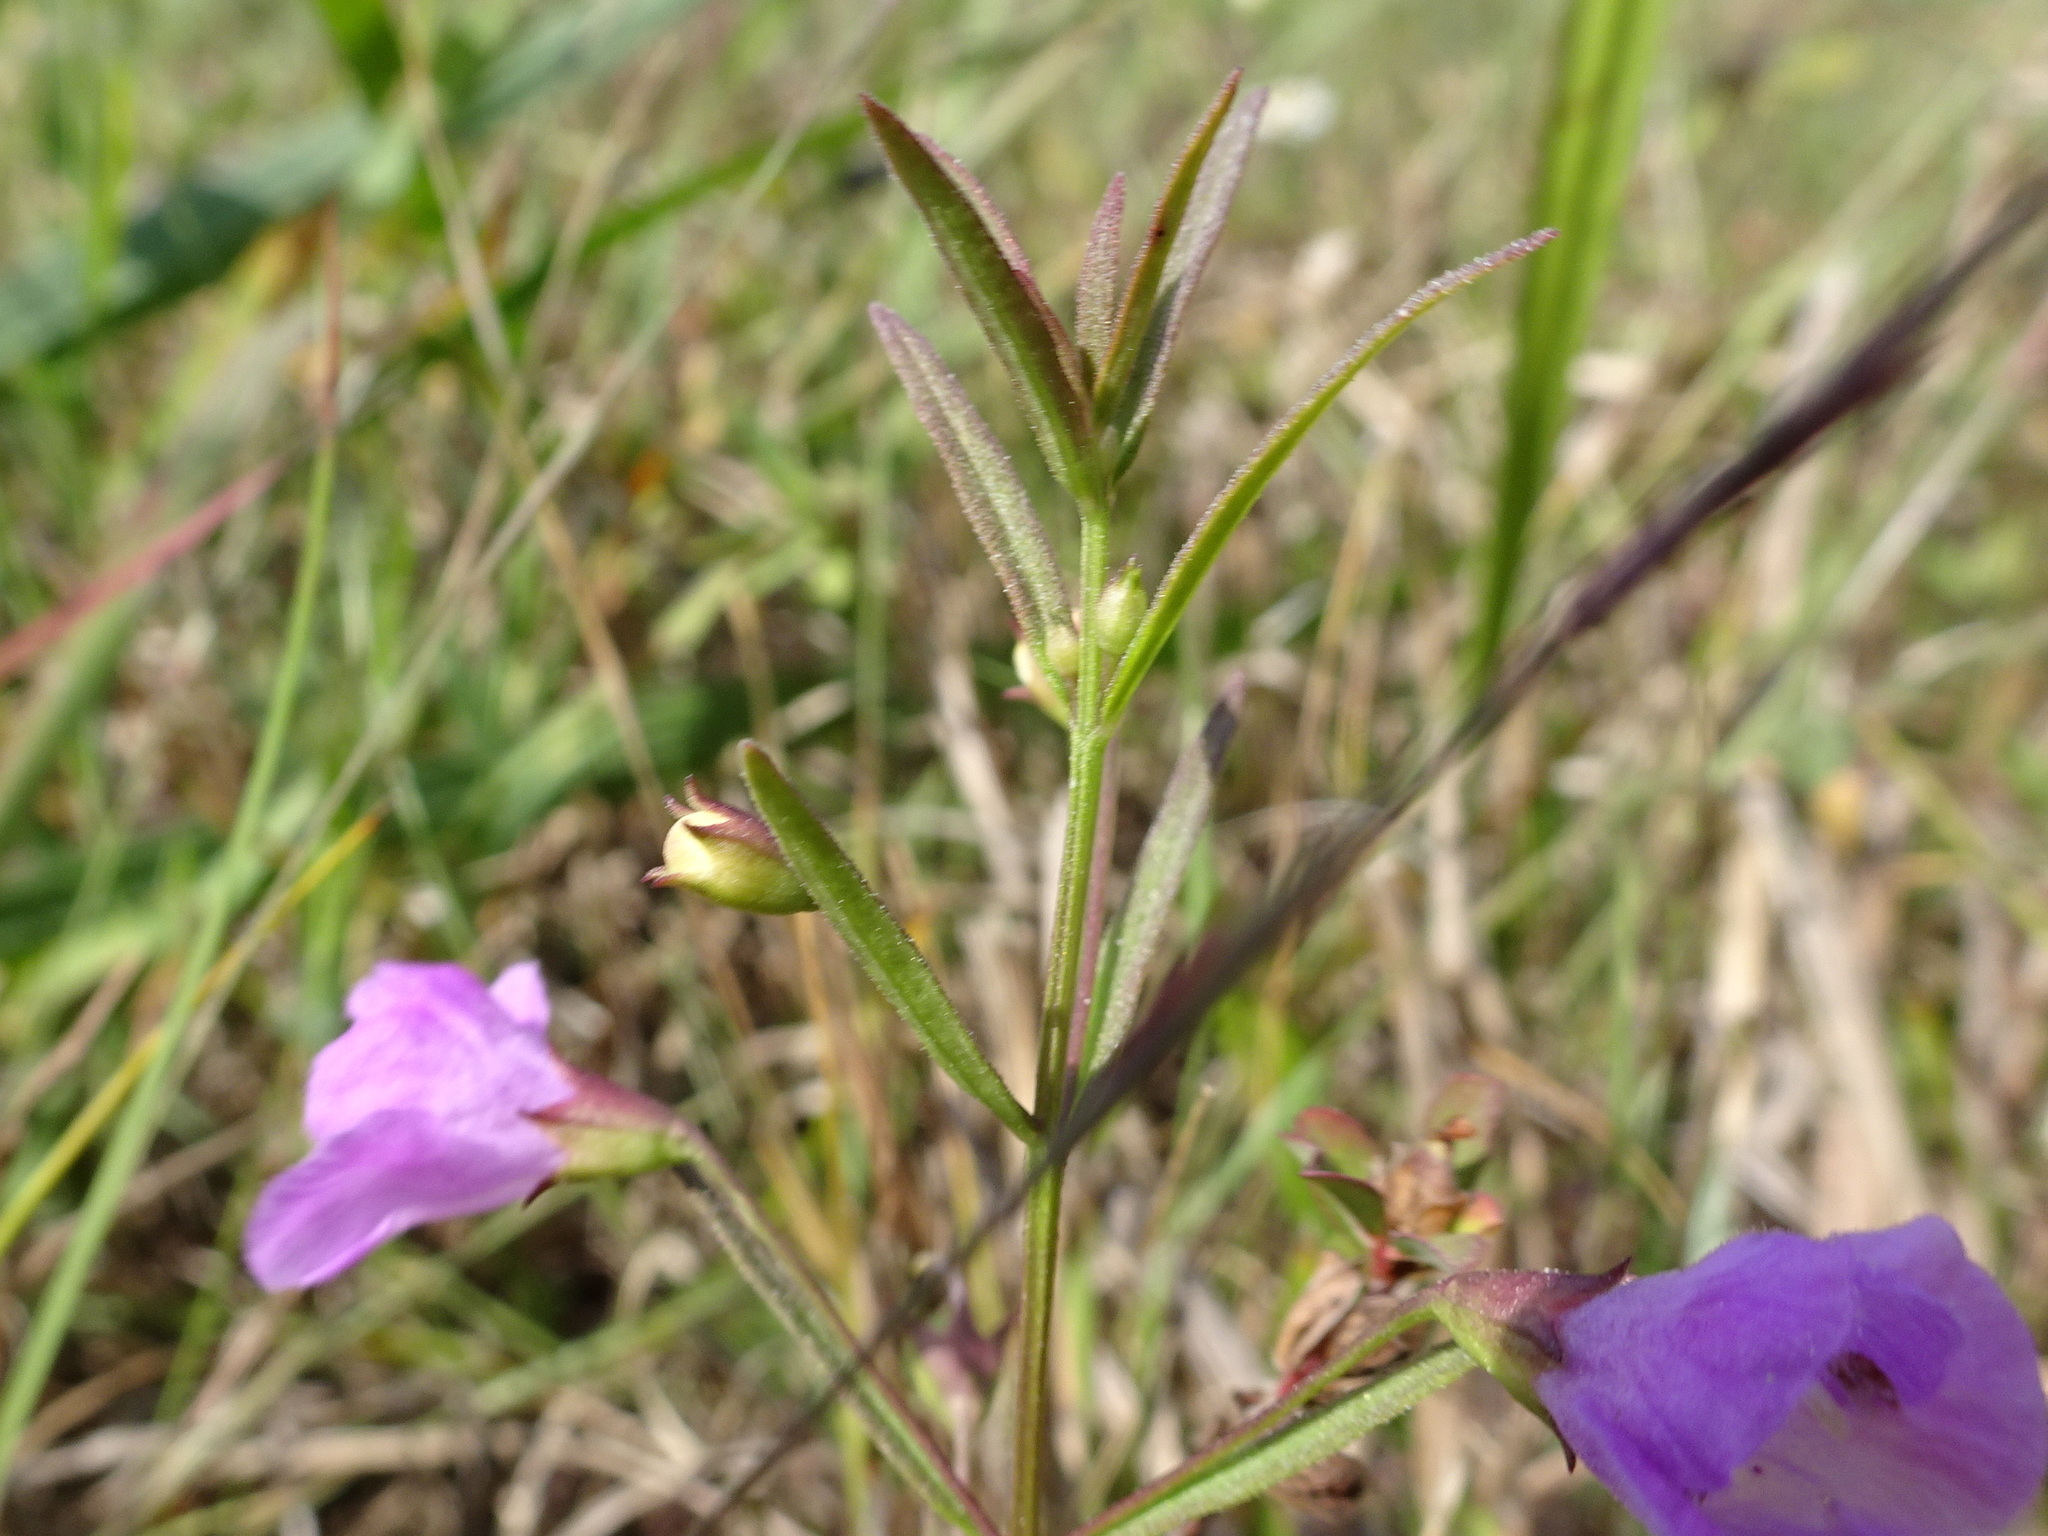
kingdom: Plantae
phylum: Tracheophyta
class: Magnoliopsida
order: Lamiales
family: Orobanchaceae
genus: Agalinis
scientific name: Agalinis tenuifolia
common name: Slender agalinis
